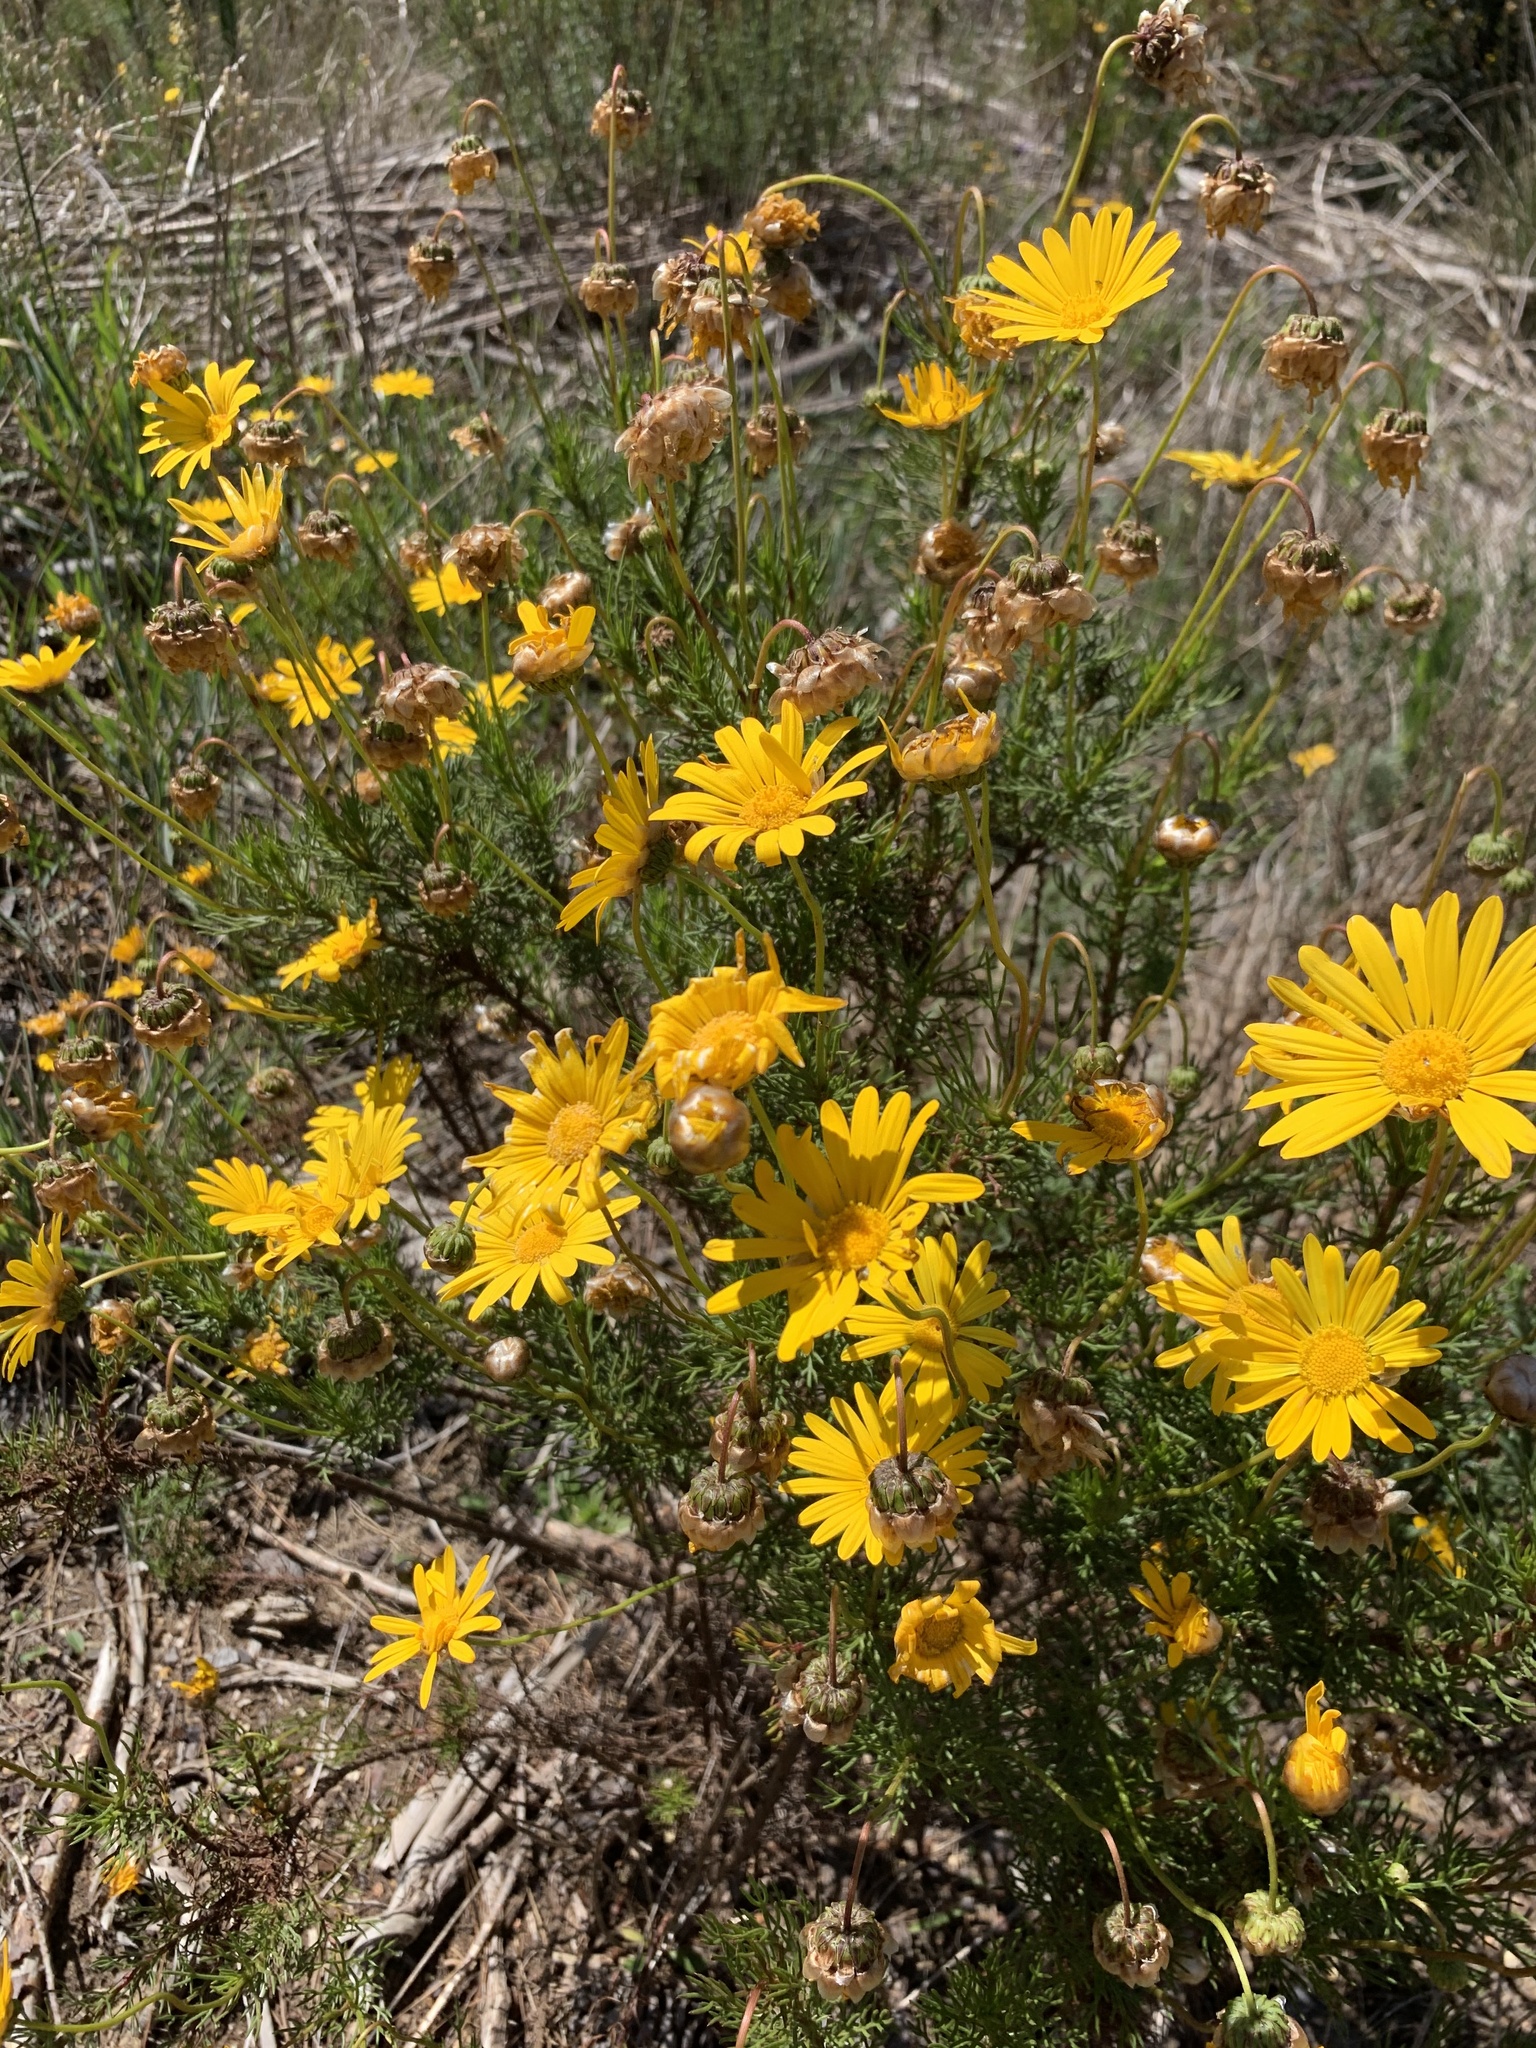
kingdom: Plantae
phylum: Tracheophyta
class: Magnoliopsida
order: Asterales
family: Asteraceae
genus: Ursinia
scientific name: Ursinia paleacea
